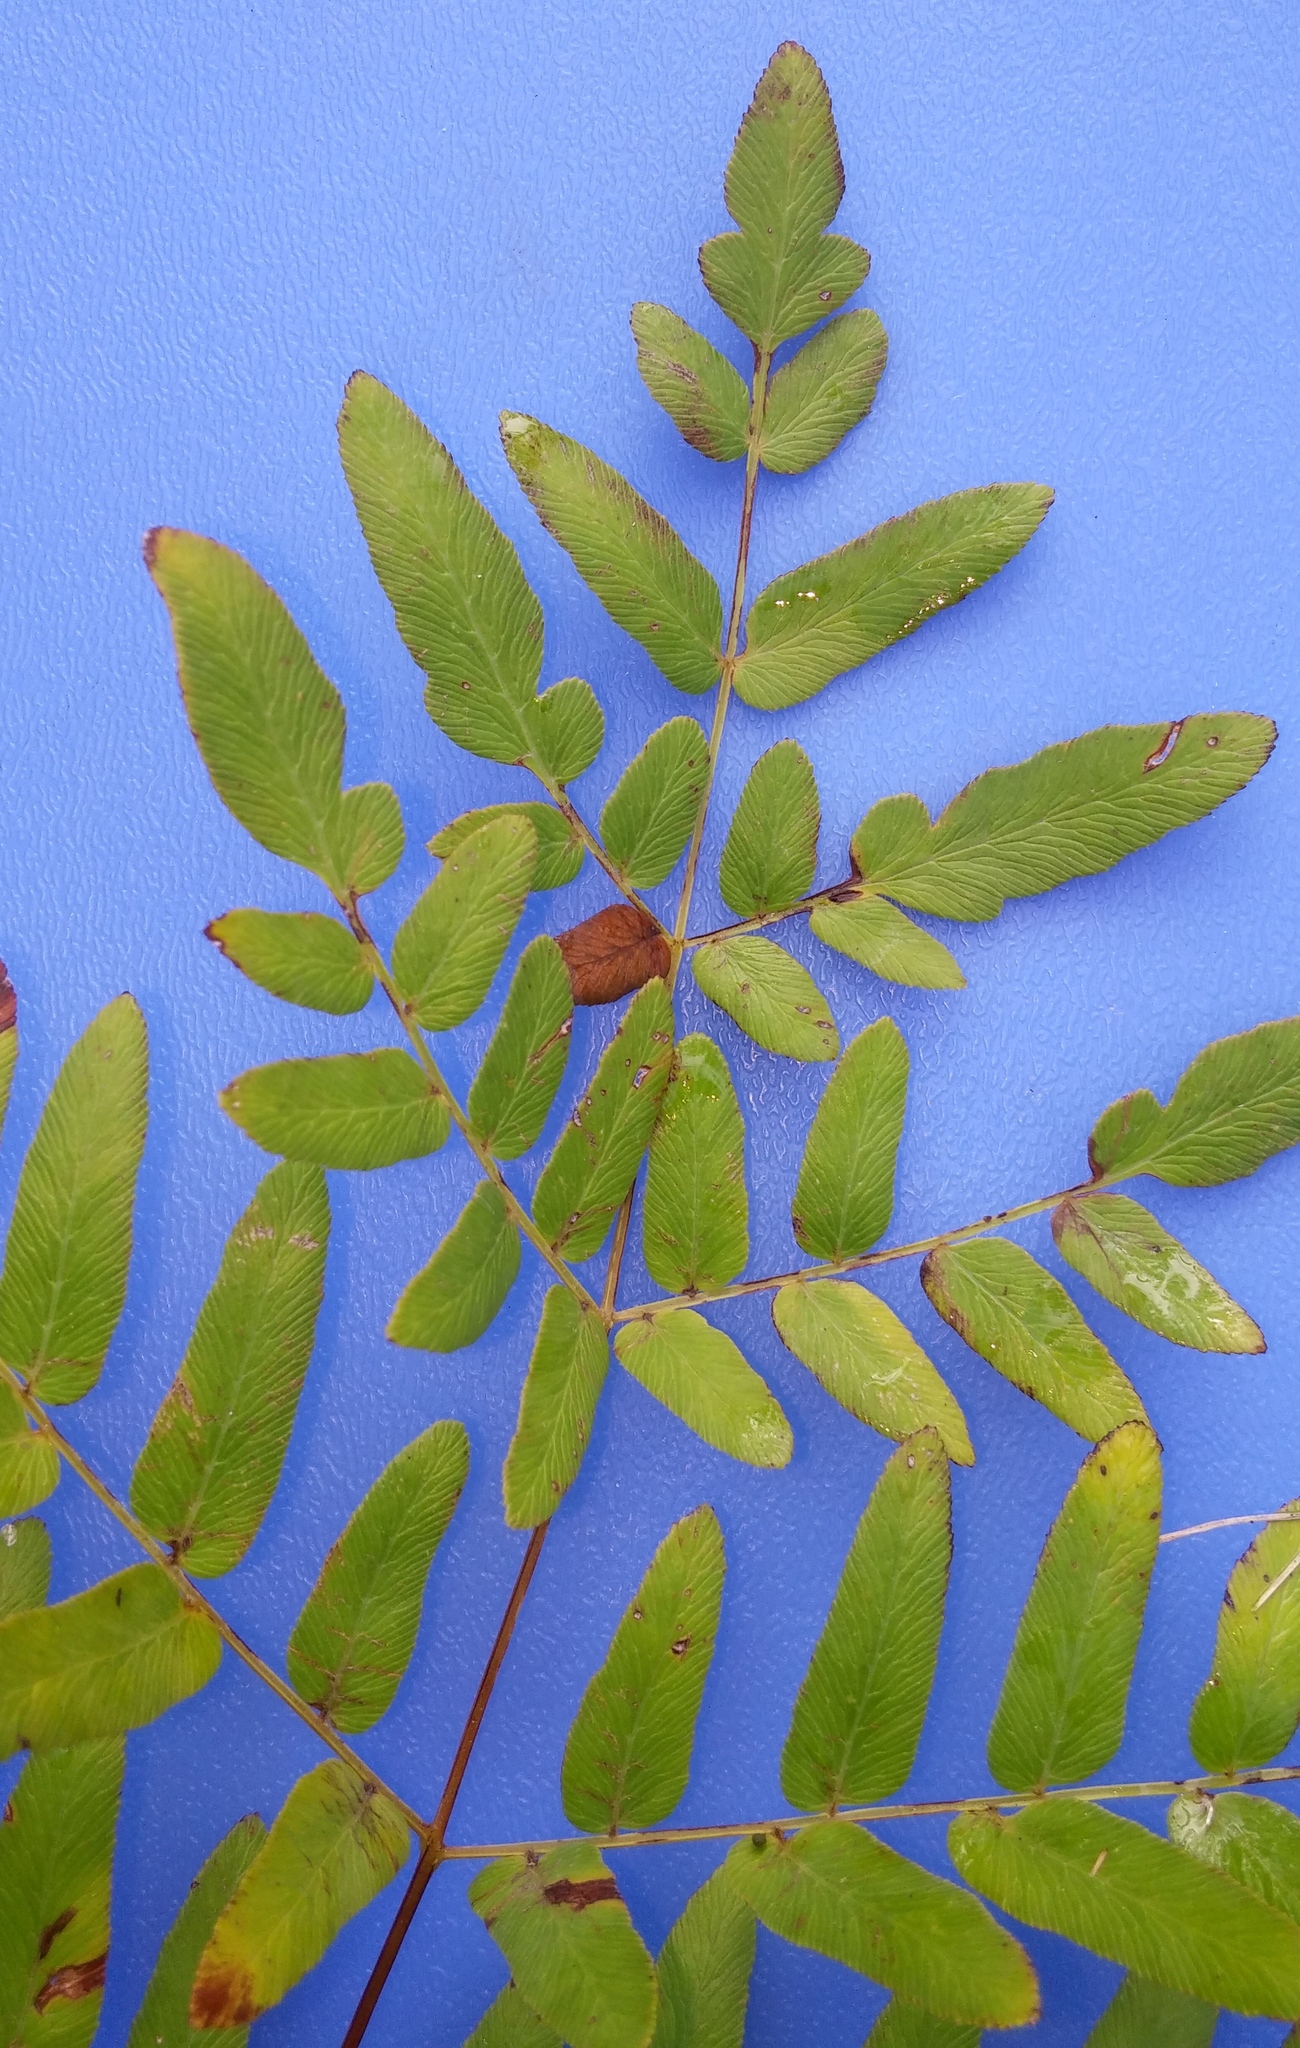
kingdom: Plantae
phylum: Tracheophyta
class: Polypodiopsida
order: Osmundales
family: Osmundaceae
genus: Osmunda
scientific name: Osmunda spectabilis
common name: American royal fern
